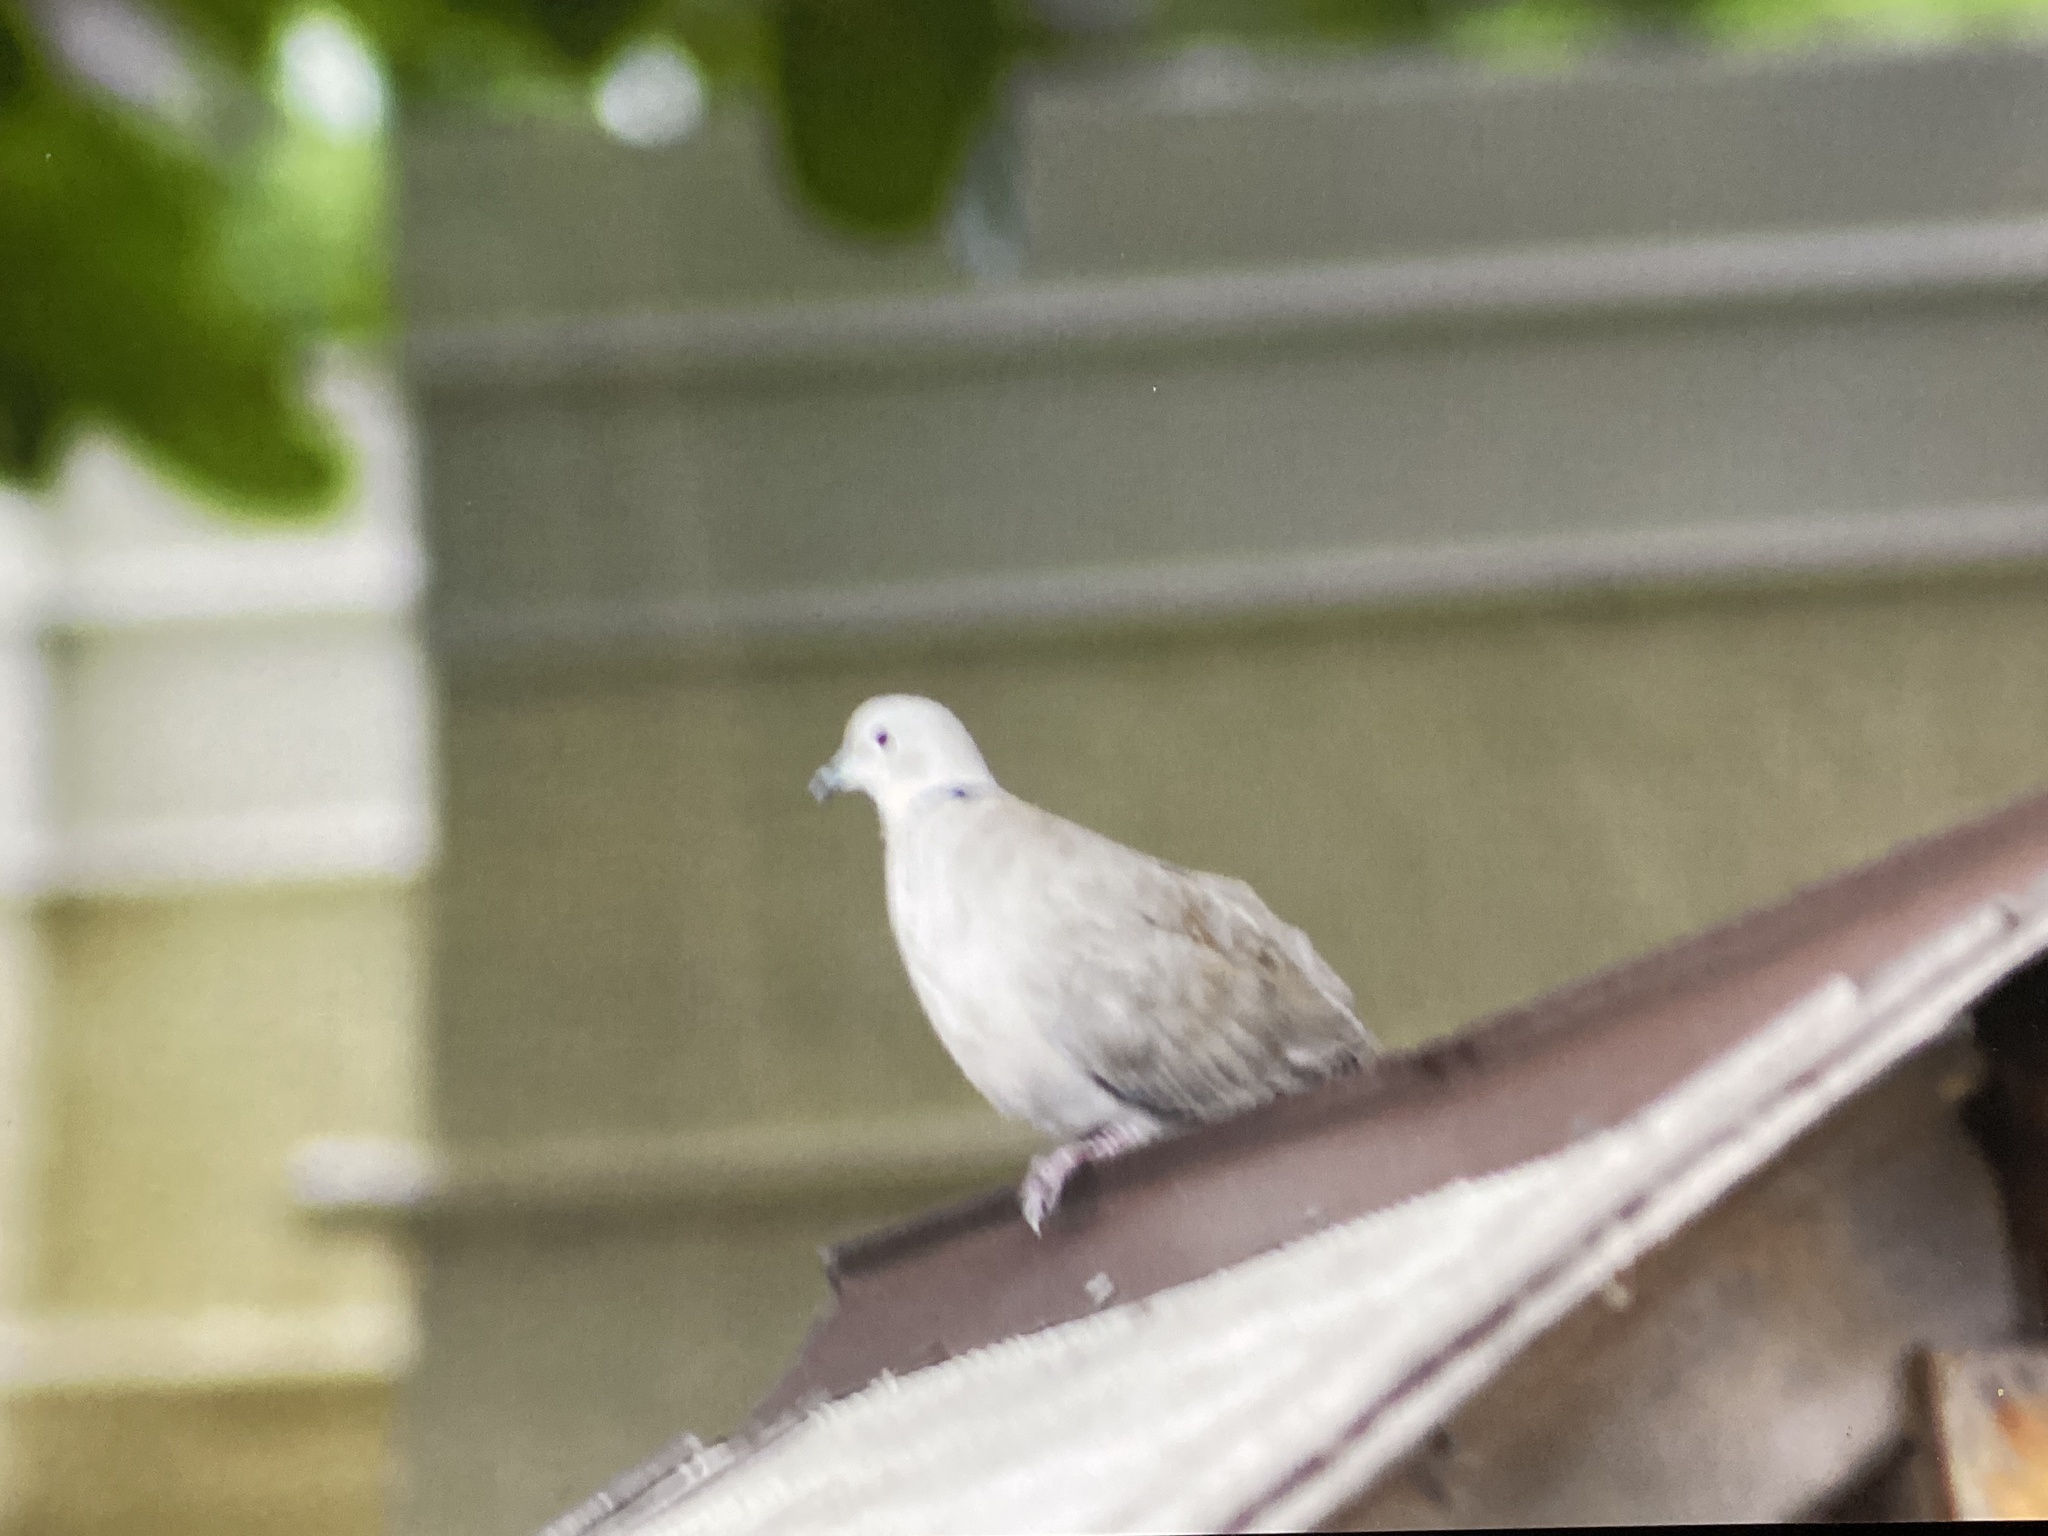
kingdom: Animalia
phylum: Chordata
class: Aves
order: Columbiformes
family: Columbidae
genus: Streptopelia
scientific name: Streptopelia decaocto
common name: Eurasian collared dove
